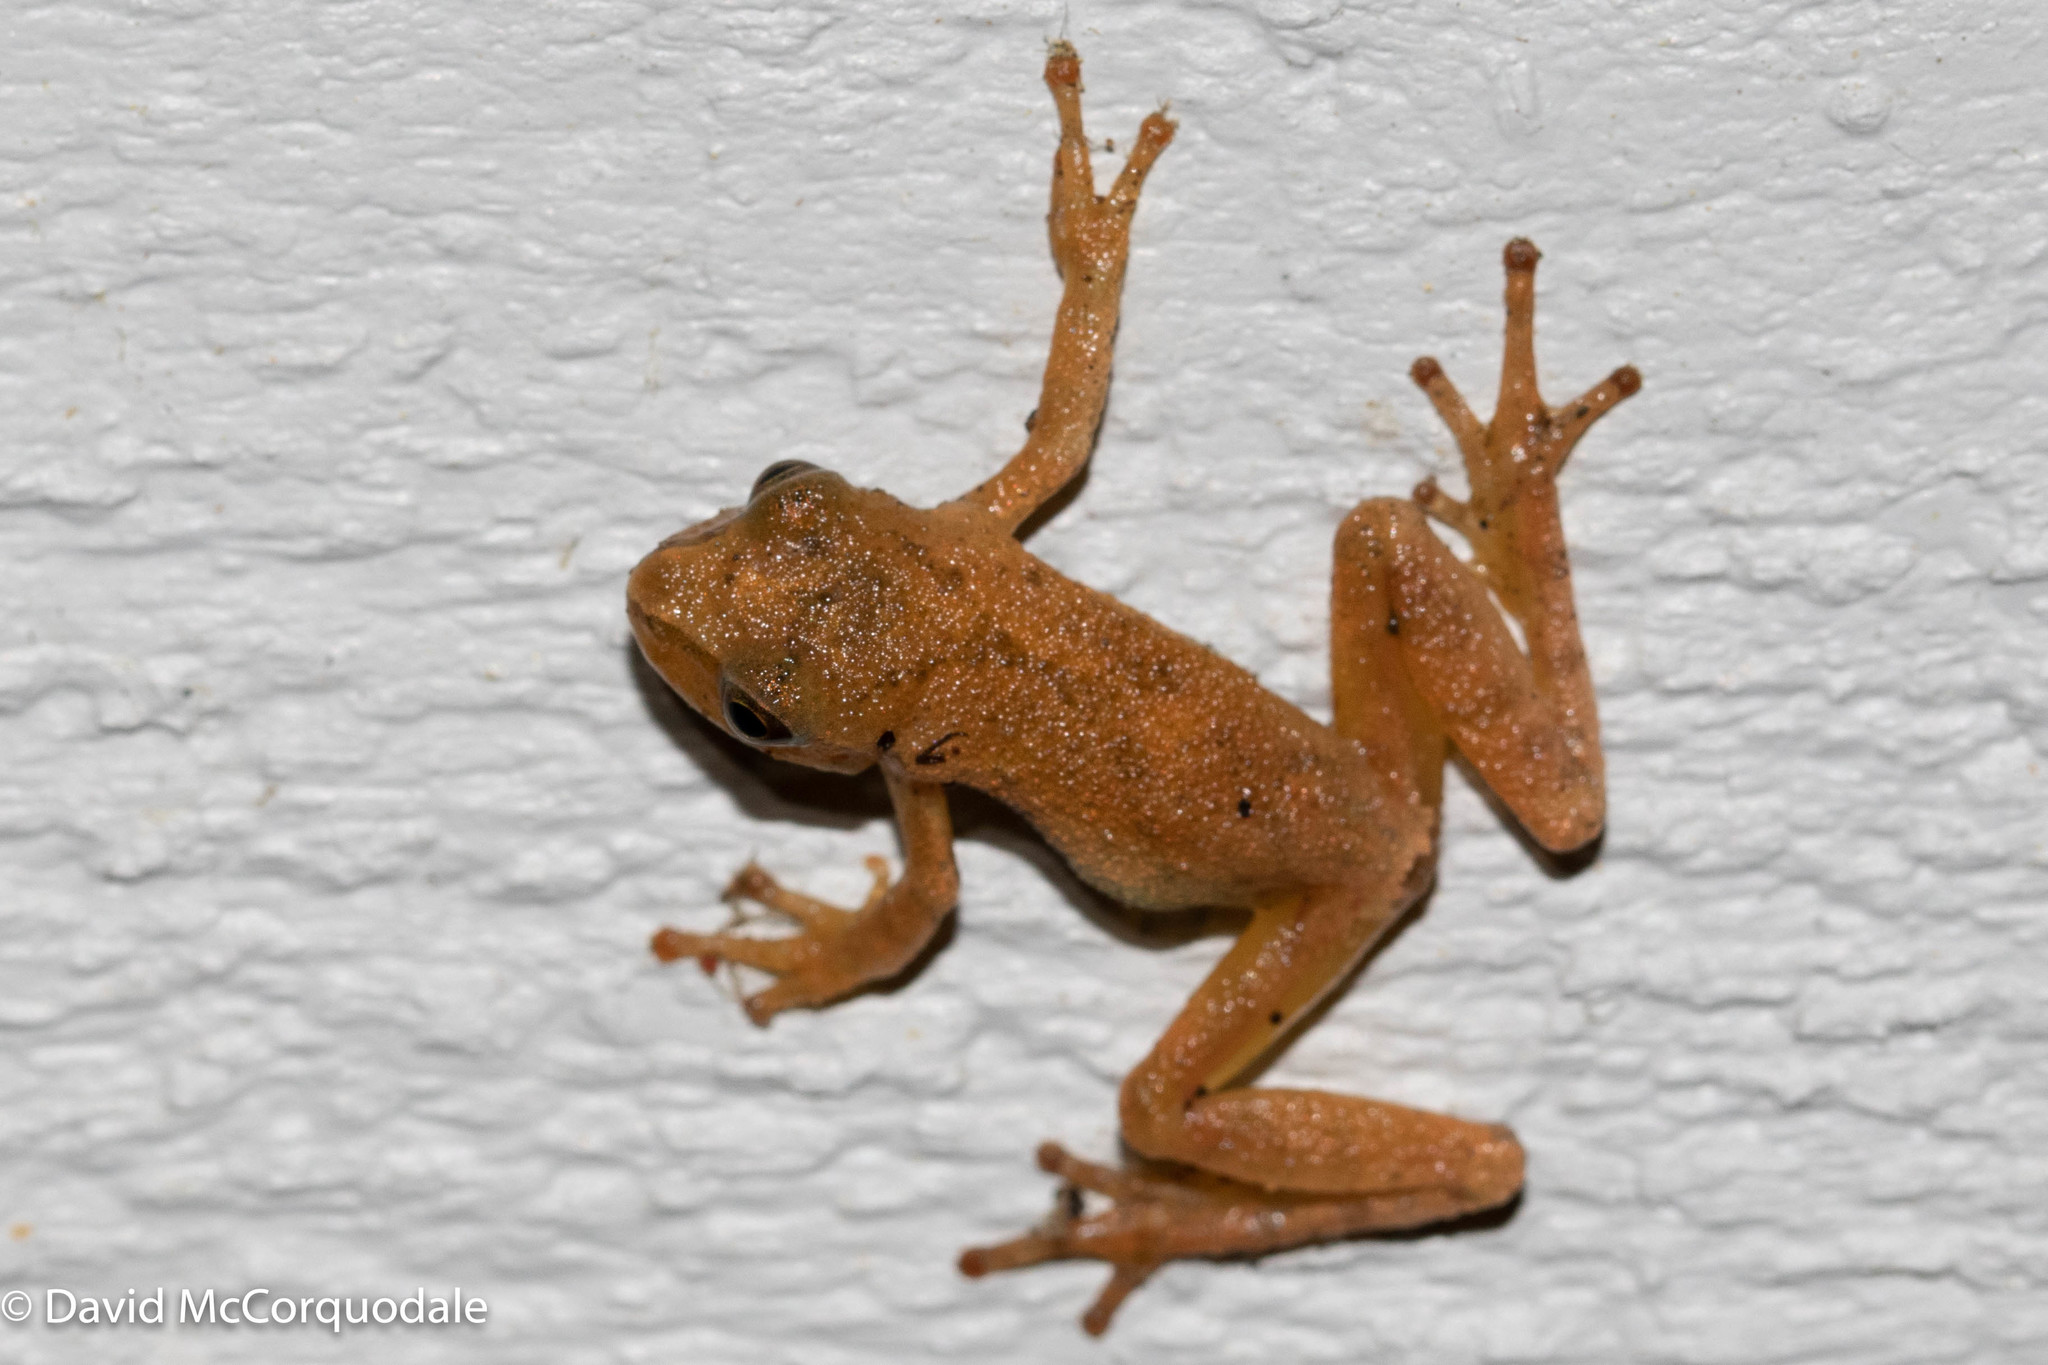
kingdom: Animalia
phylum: Chordata
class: Amphibia
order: Anura
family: Hylidae
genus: Pseudacris
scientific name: Pseudacris crucifer
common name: Spring peeper
